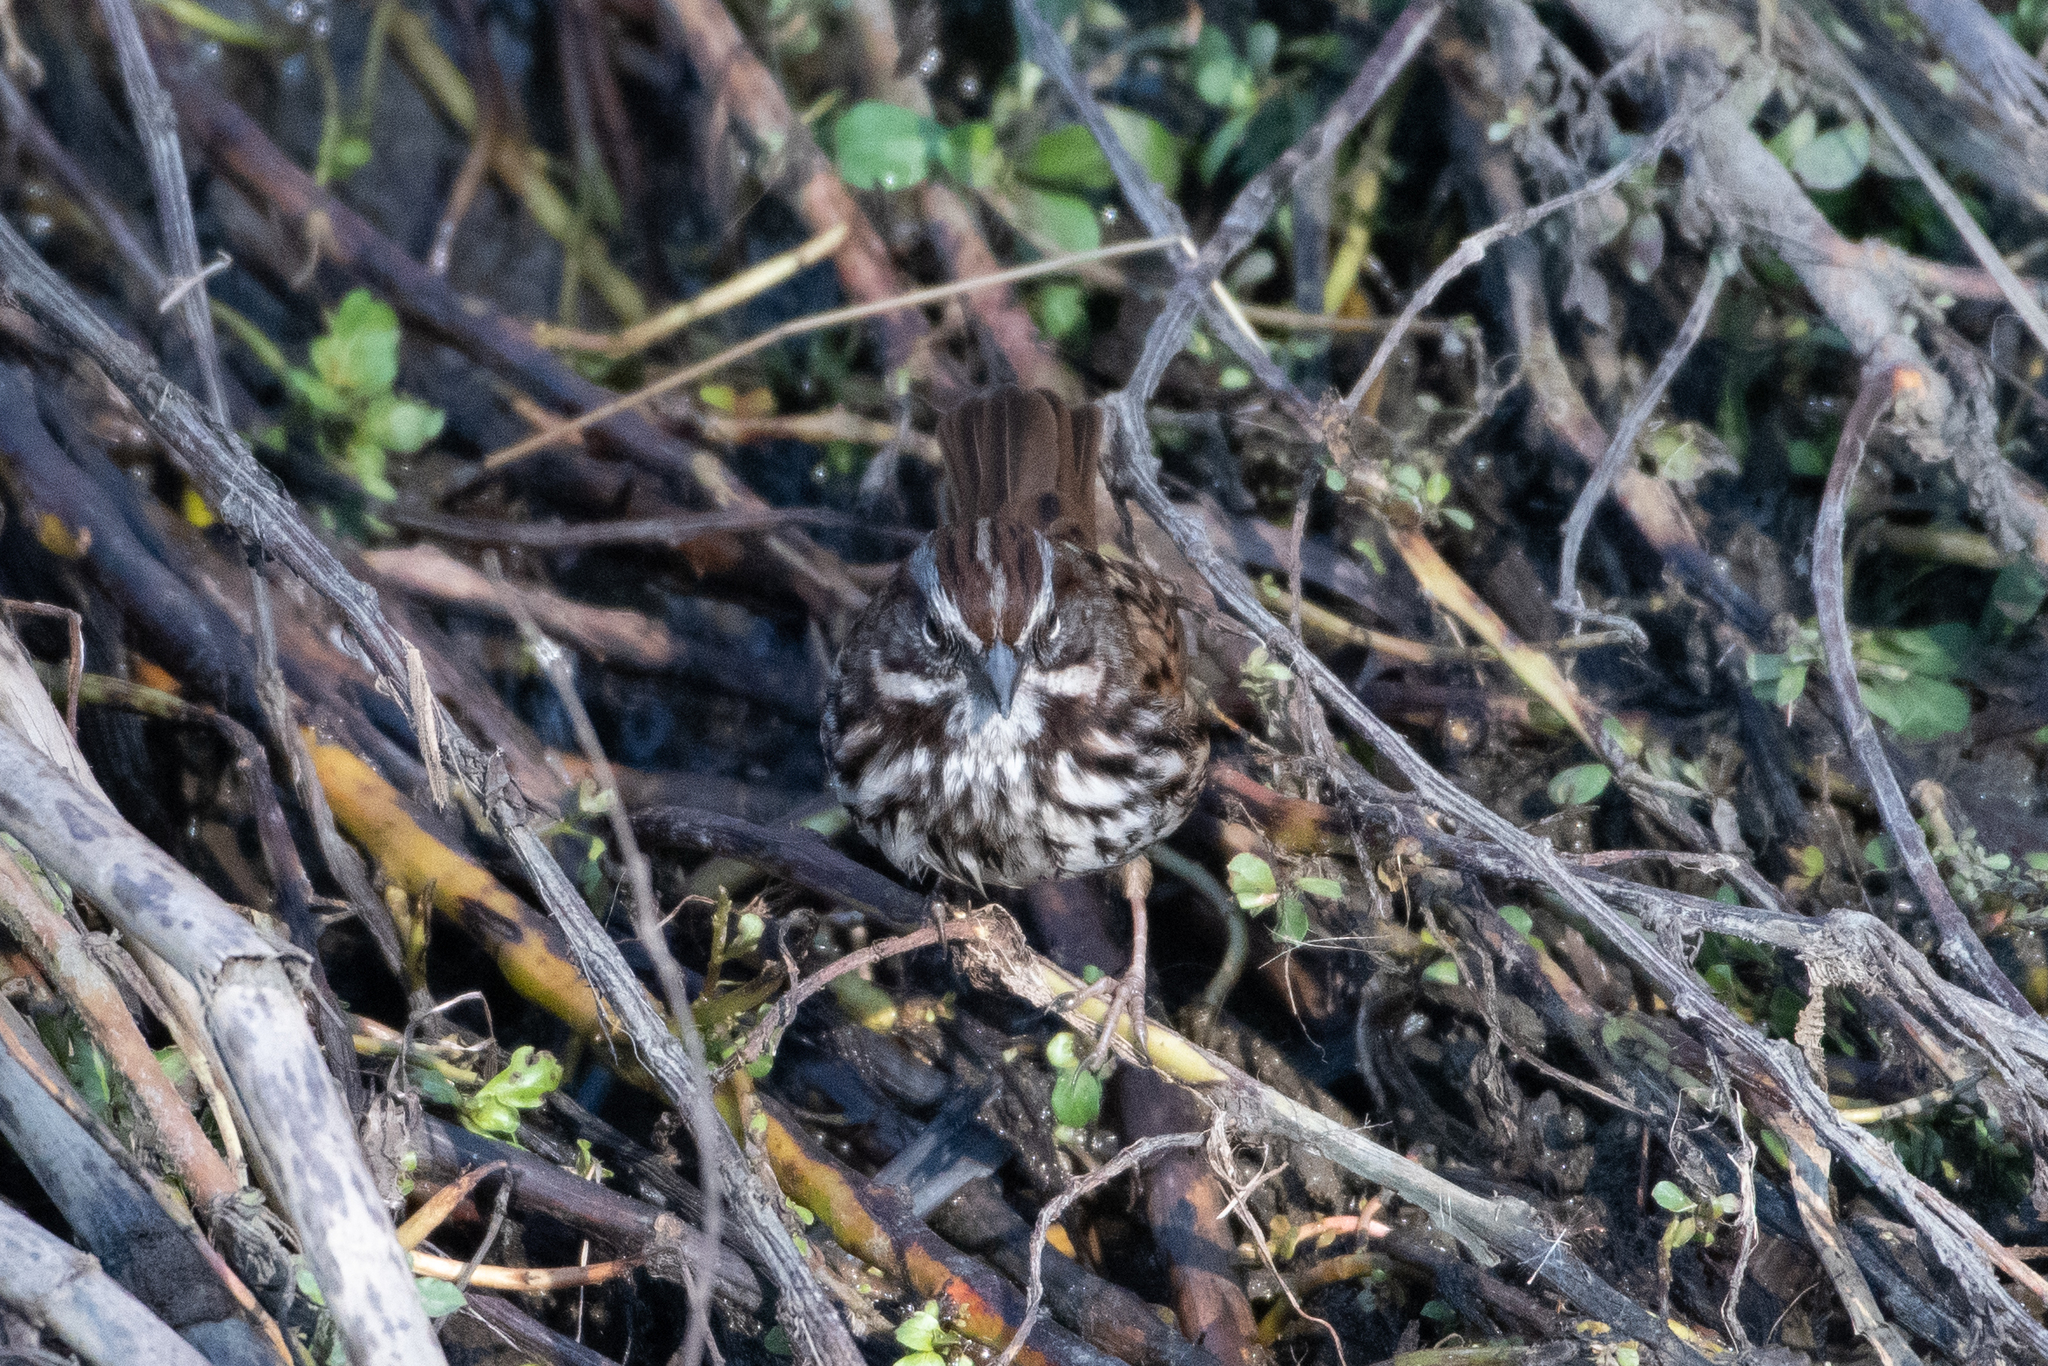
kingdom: Animalia
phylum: Chordata
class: Aves
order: Passeriformes
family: Passerellidae
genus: Melospiza
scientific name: Melospiza melodia
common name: Song sparrow
